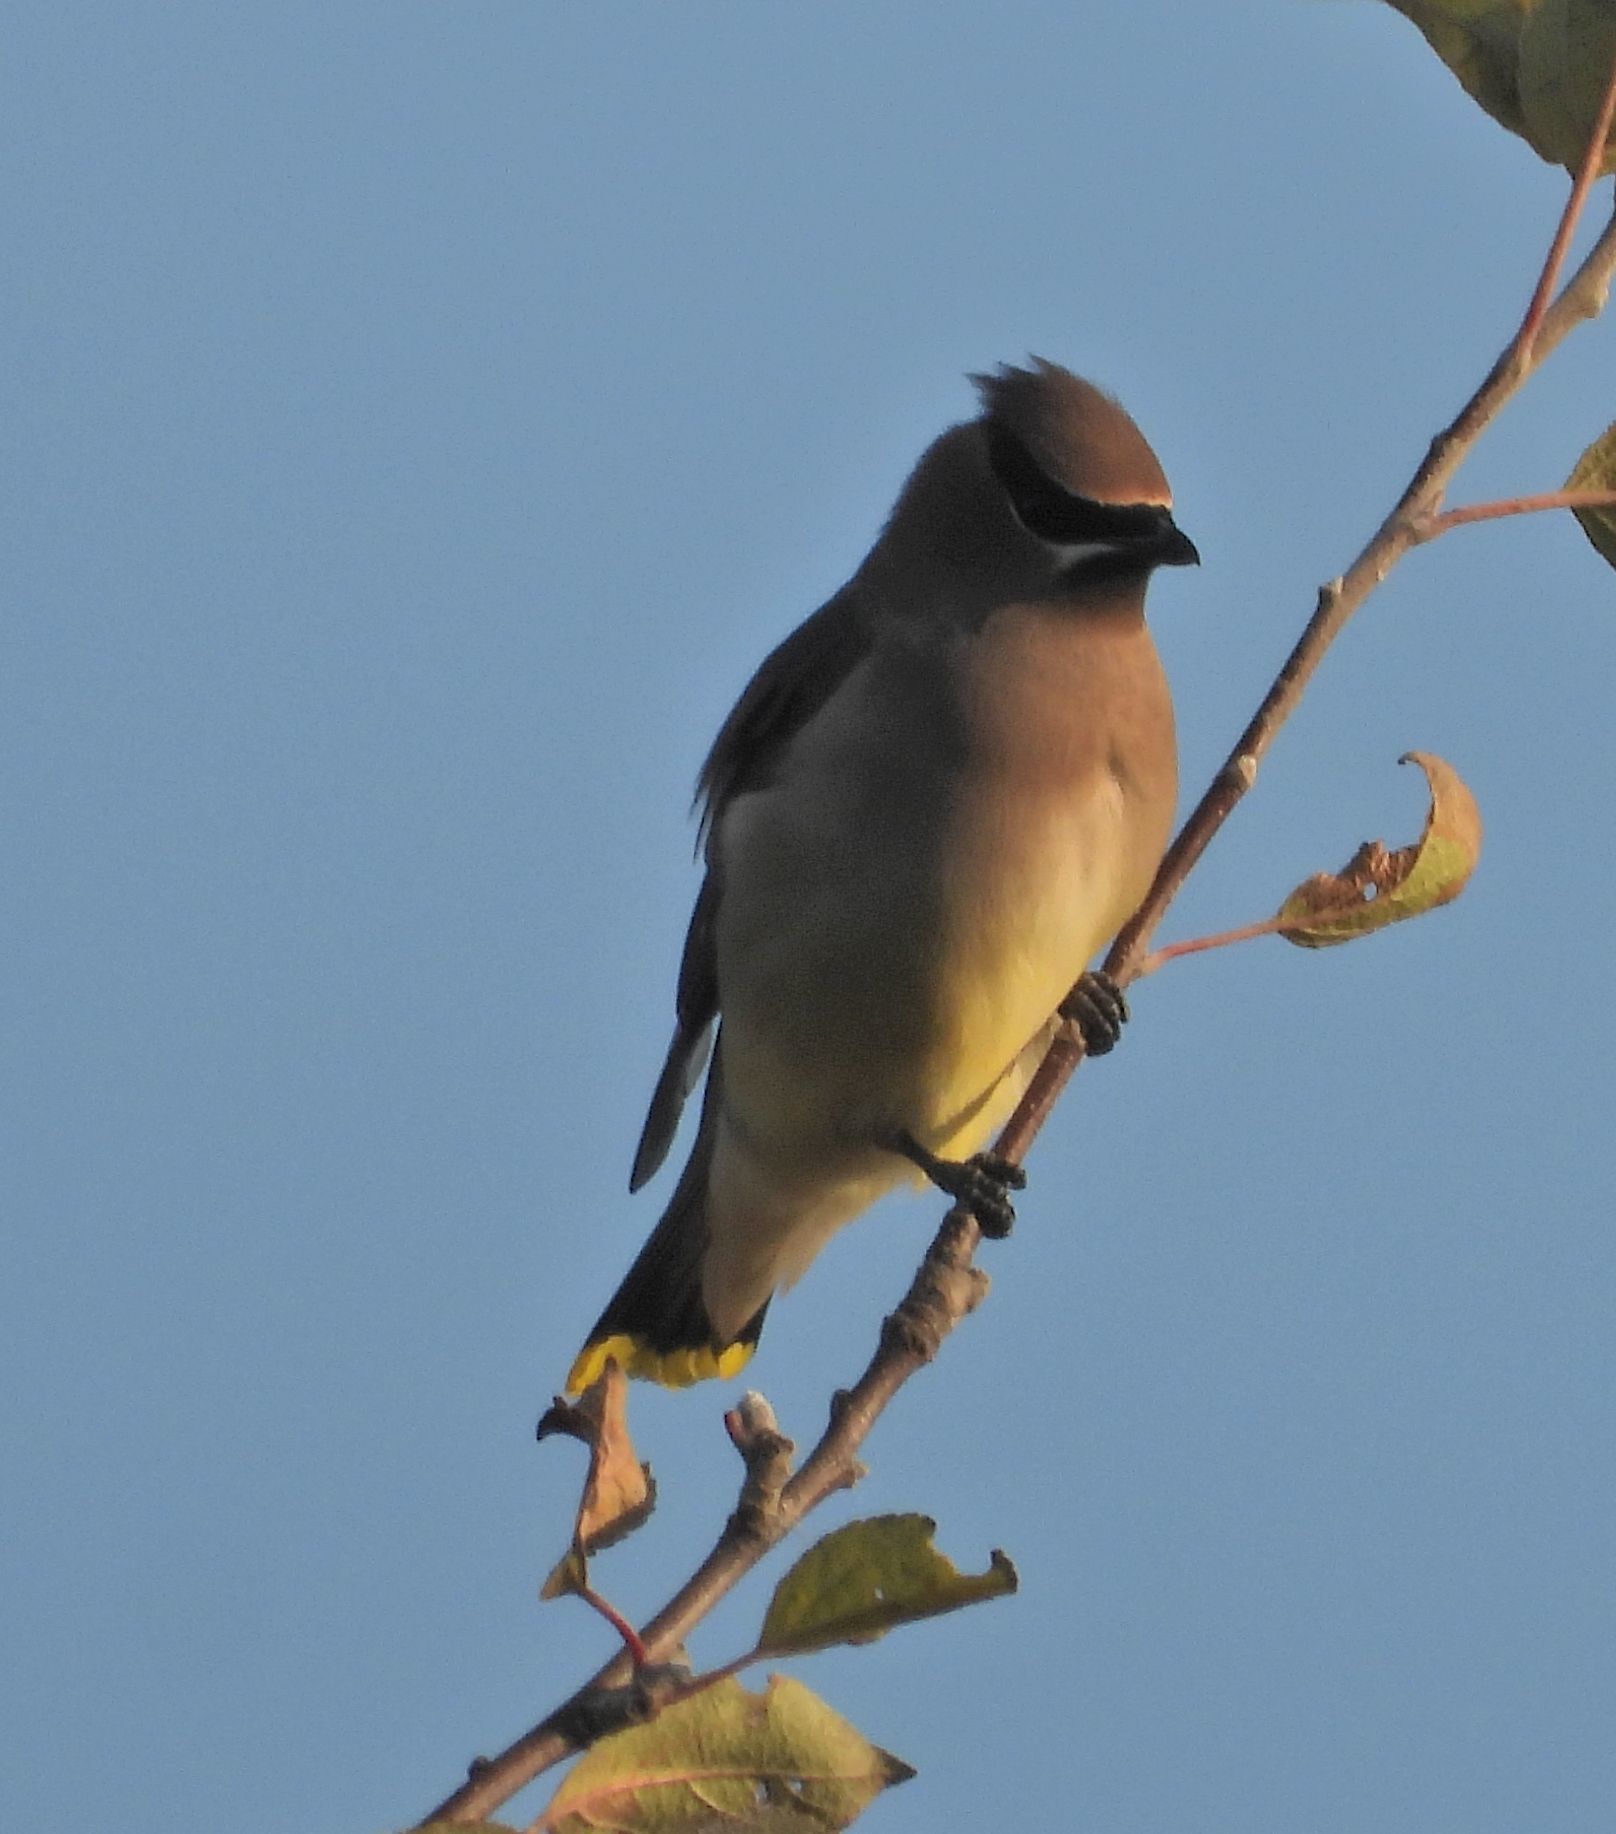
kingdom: Animalia
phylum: Chordata
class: Aves
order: Passeriformes
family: Bombycillidae
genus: Bombycilla
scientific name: Bombycilla cedrorum
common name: Cedar waxwing
